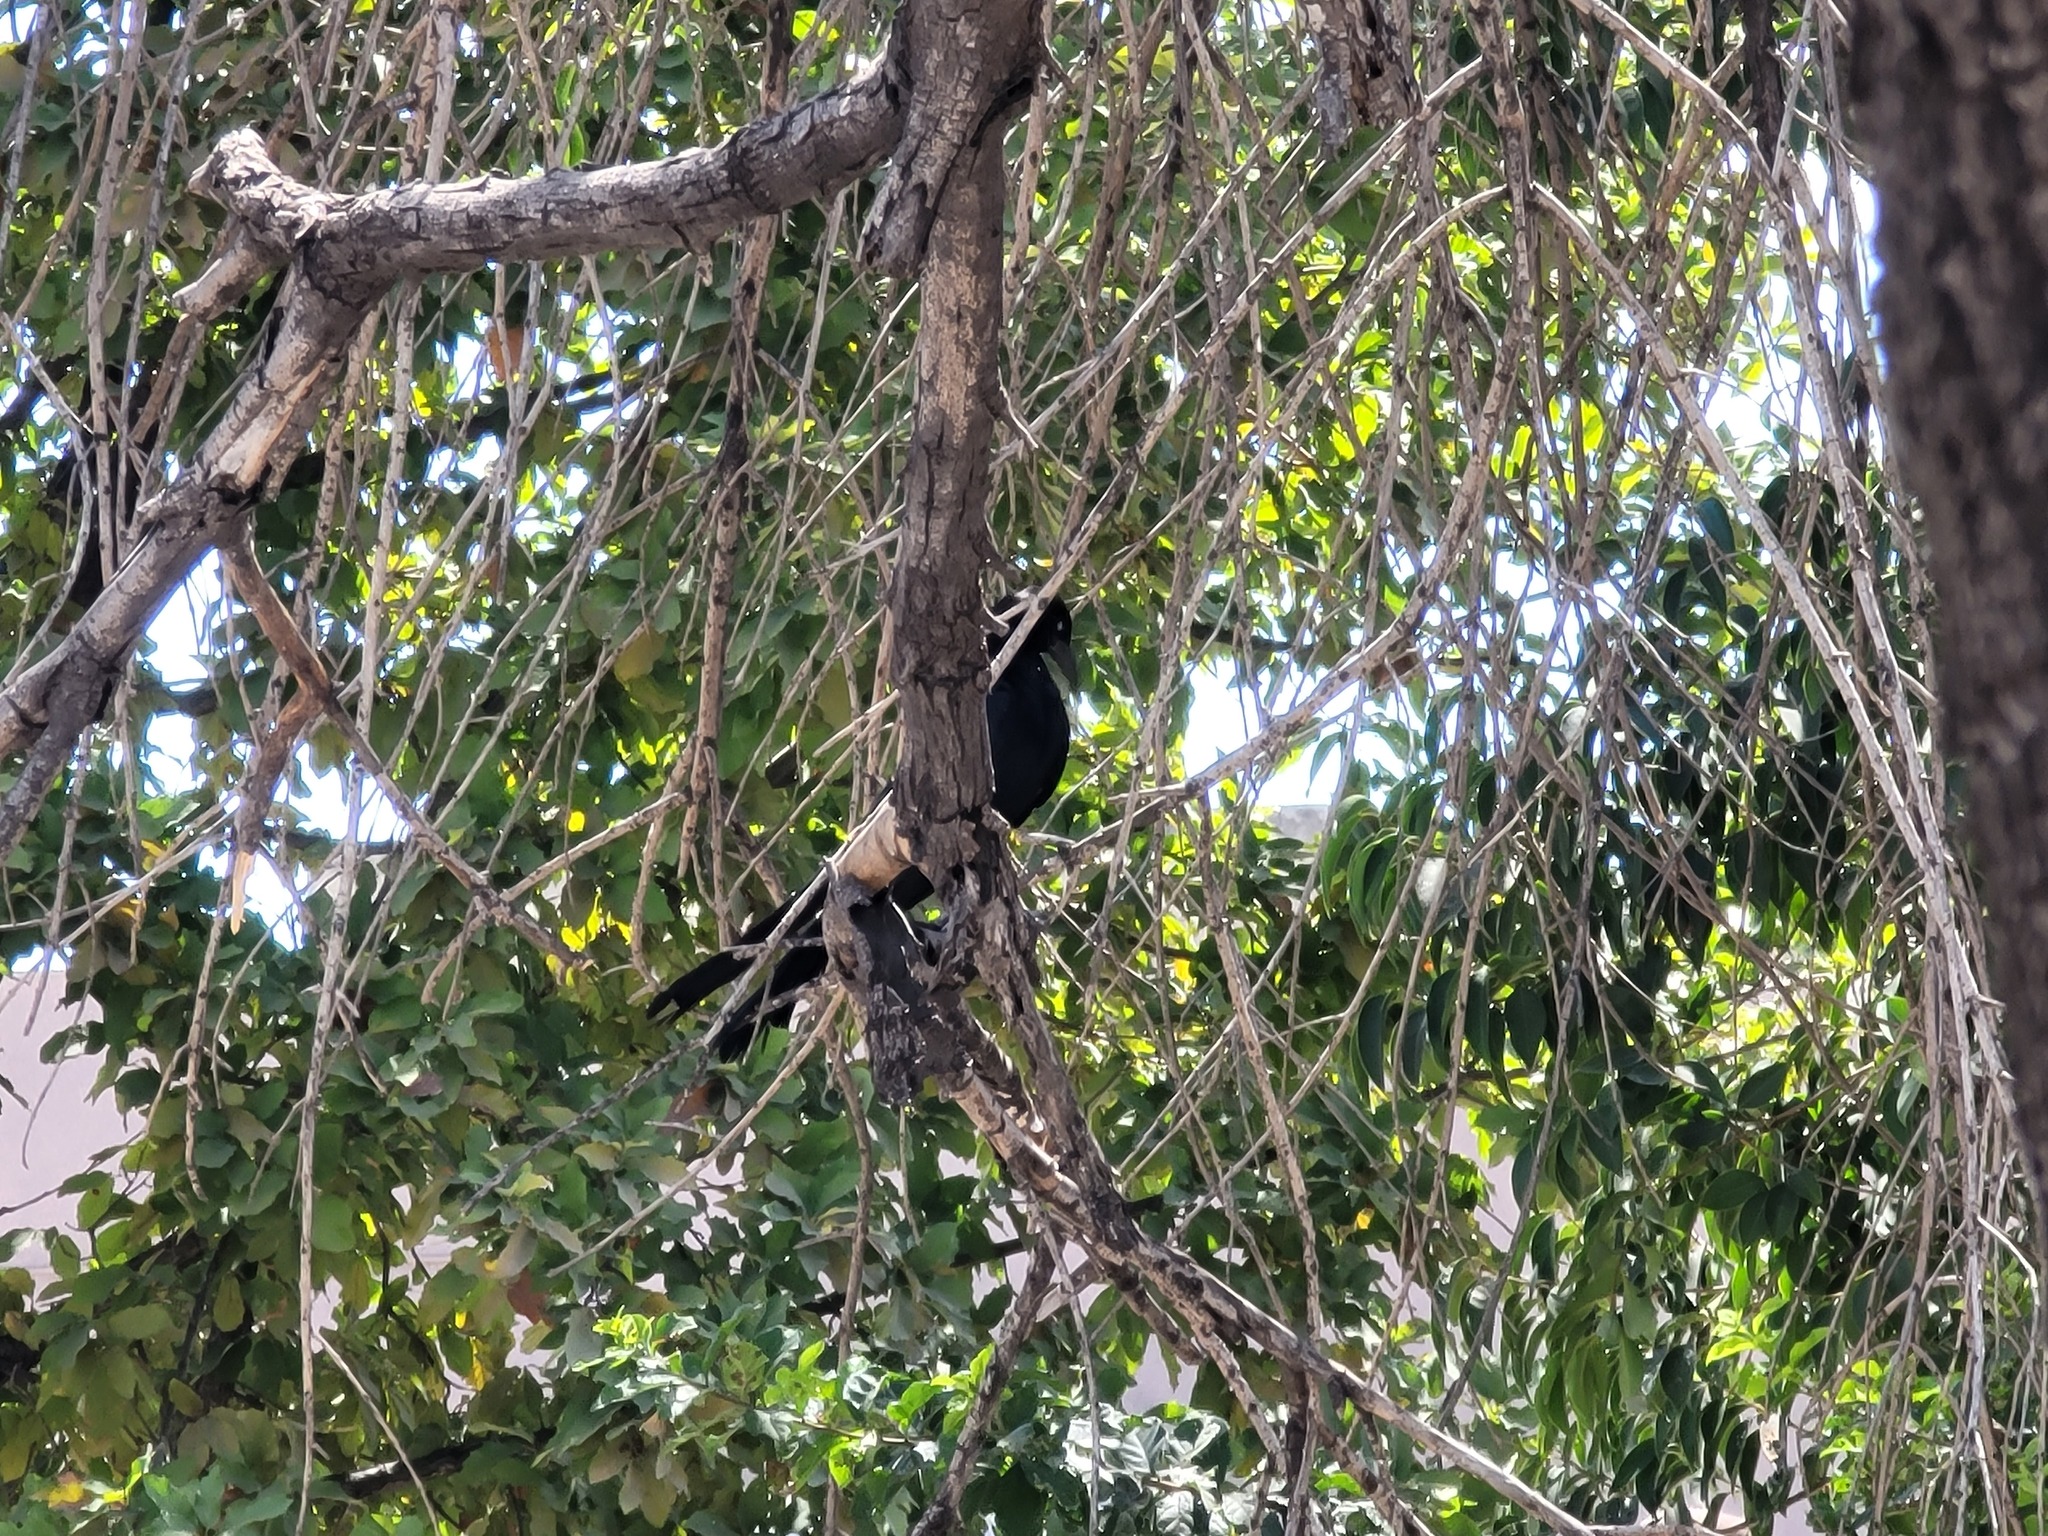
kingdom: Animalia
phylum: Chordata
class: Aves
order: Passeriformes
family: Icteridae
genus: Quiscalus
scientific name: Quiscalus mexicanus
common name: Great-tailed grackle
